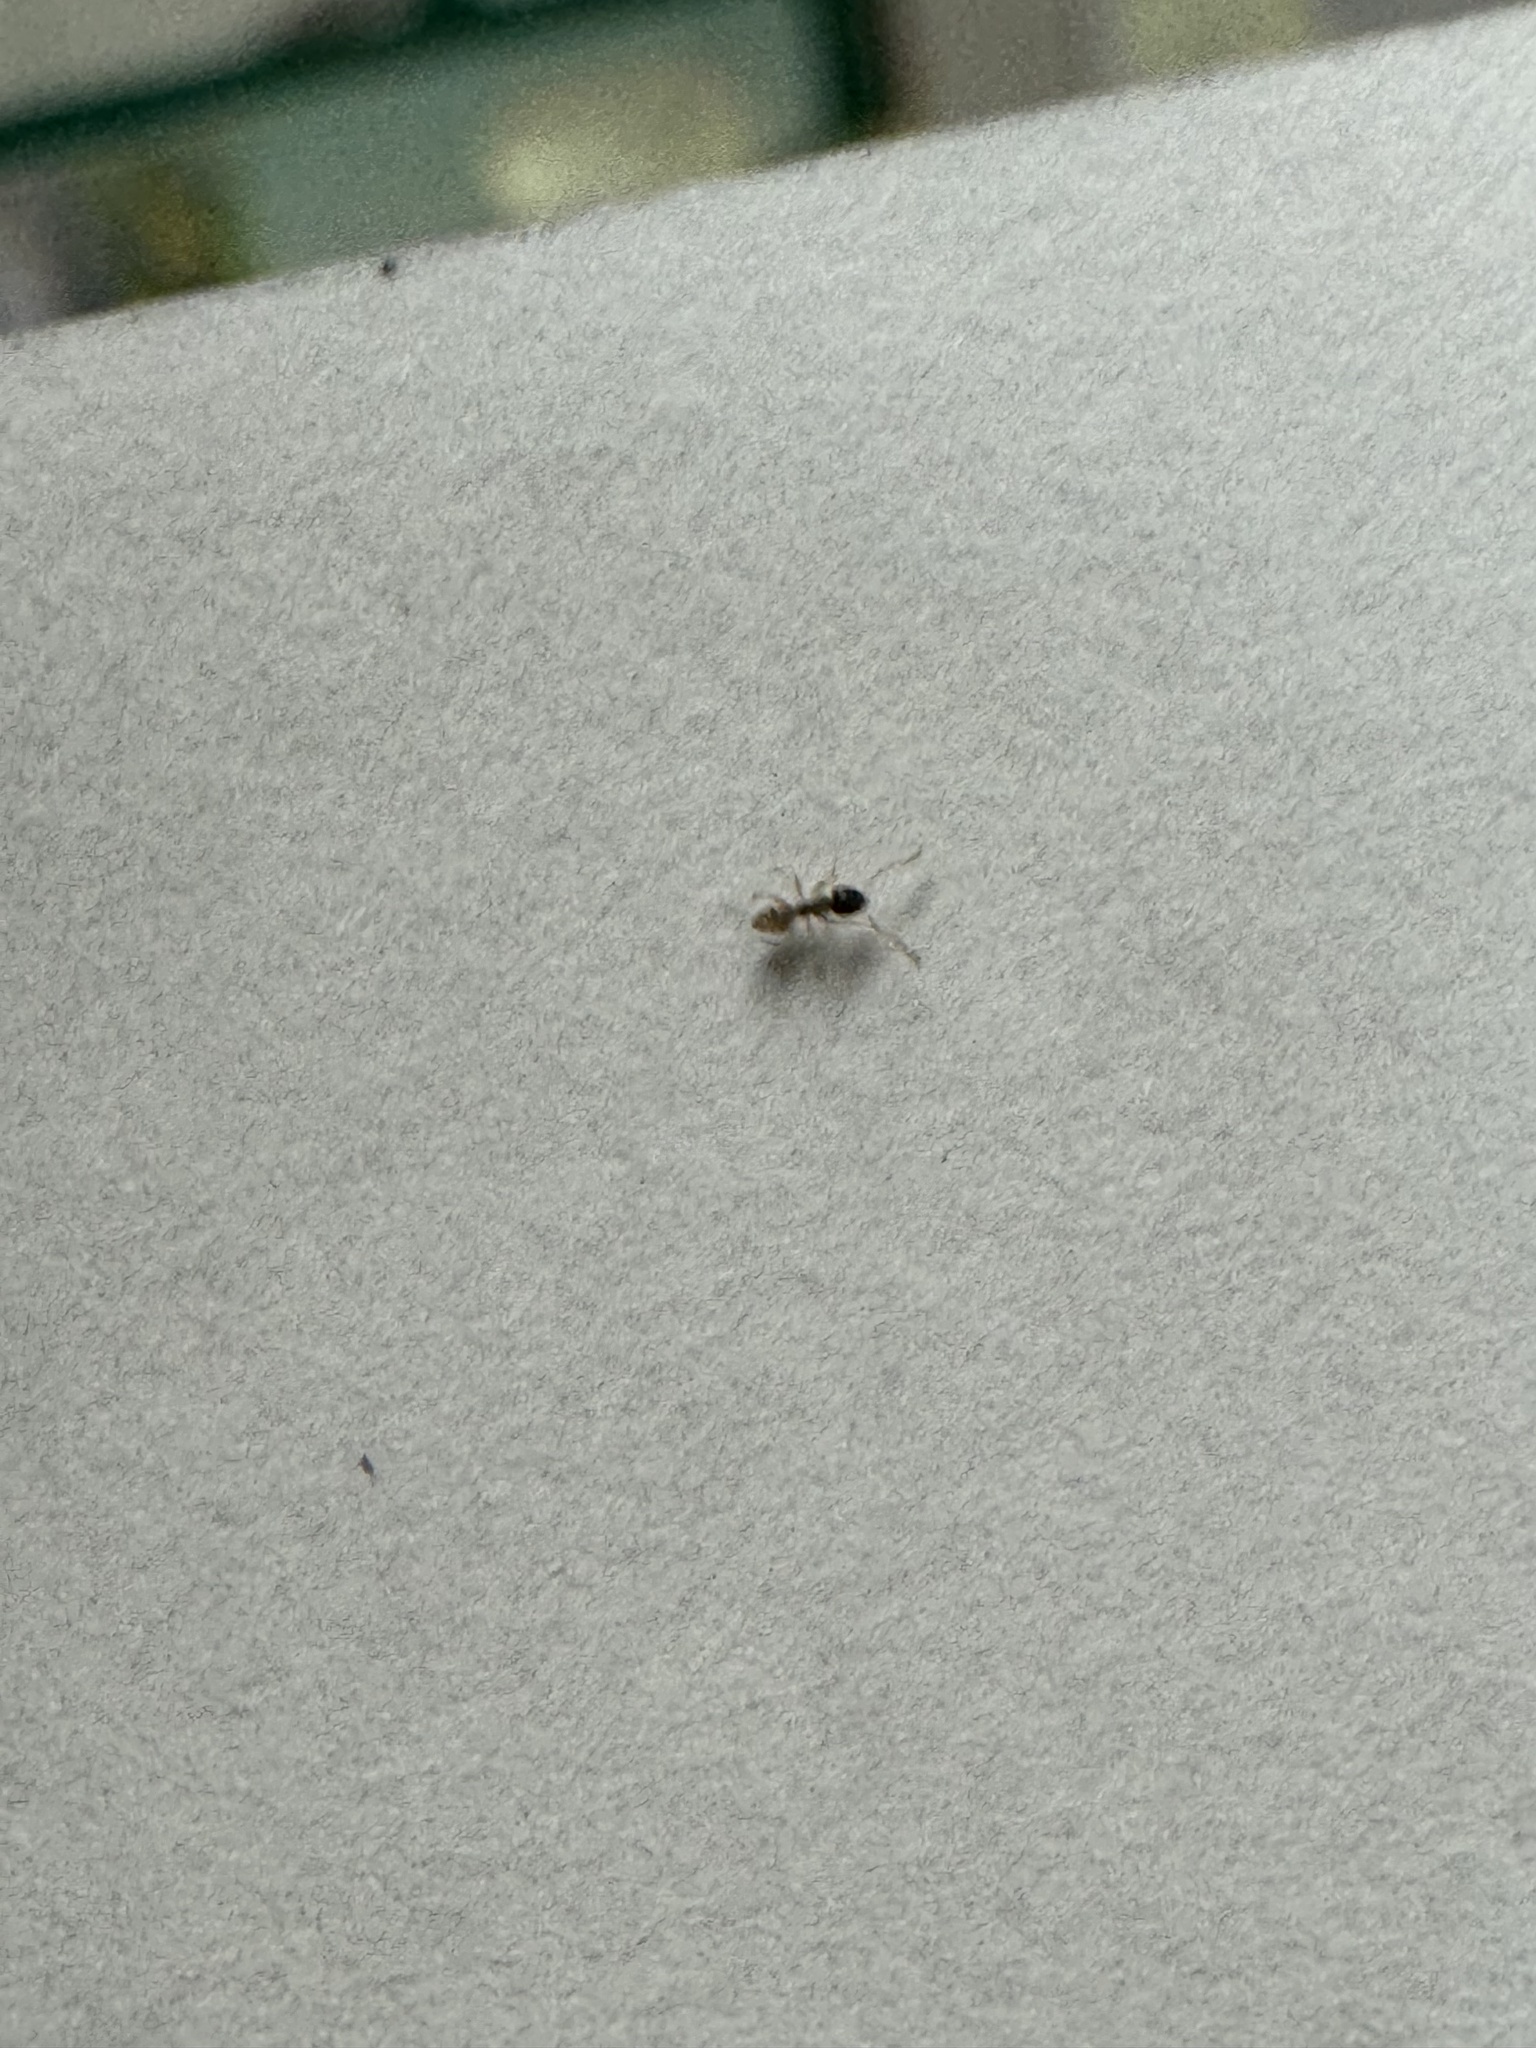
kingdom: Animalia
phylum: Arthropoda
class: Insecta
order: Hymenoptera
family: Formicidae
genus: Tapinoma
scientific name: Tapinoma melanocephalum
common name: Ghost ant
